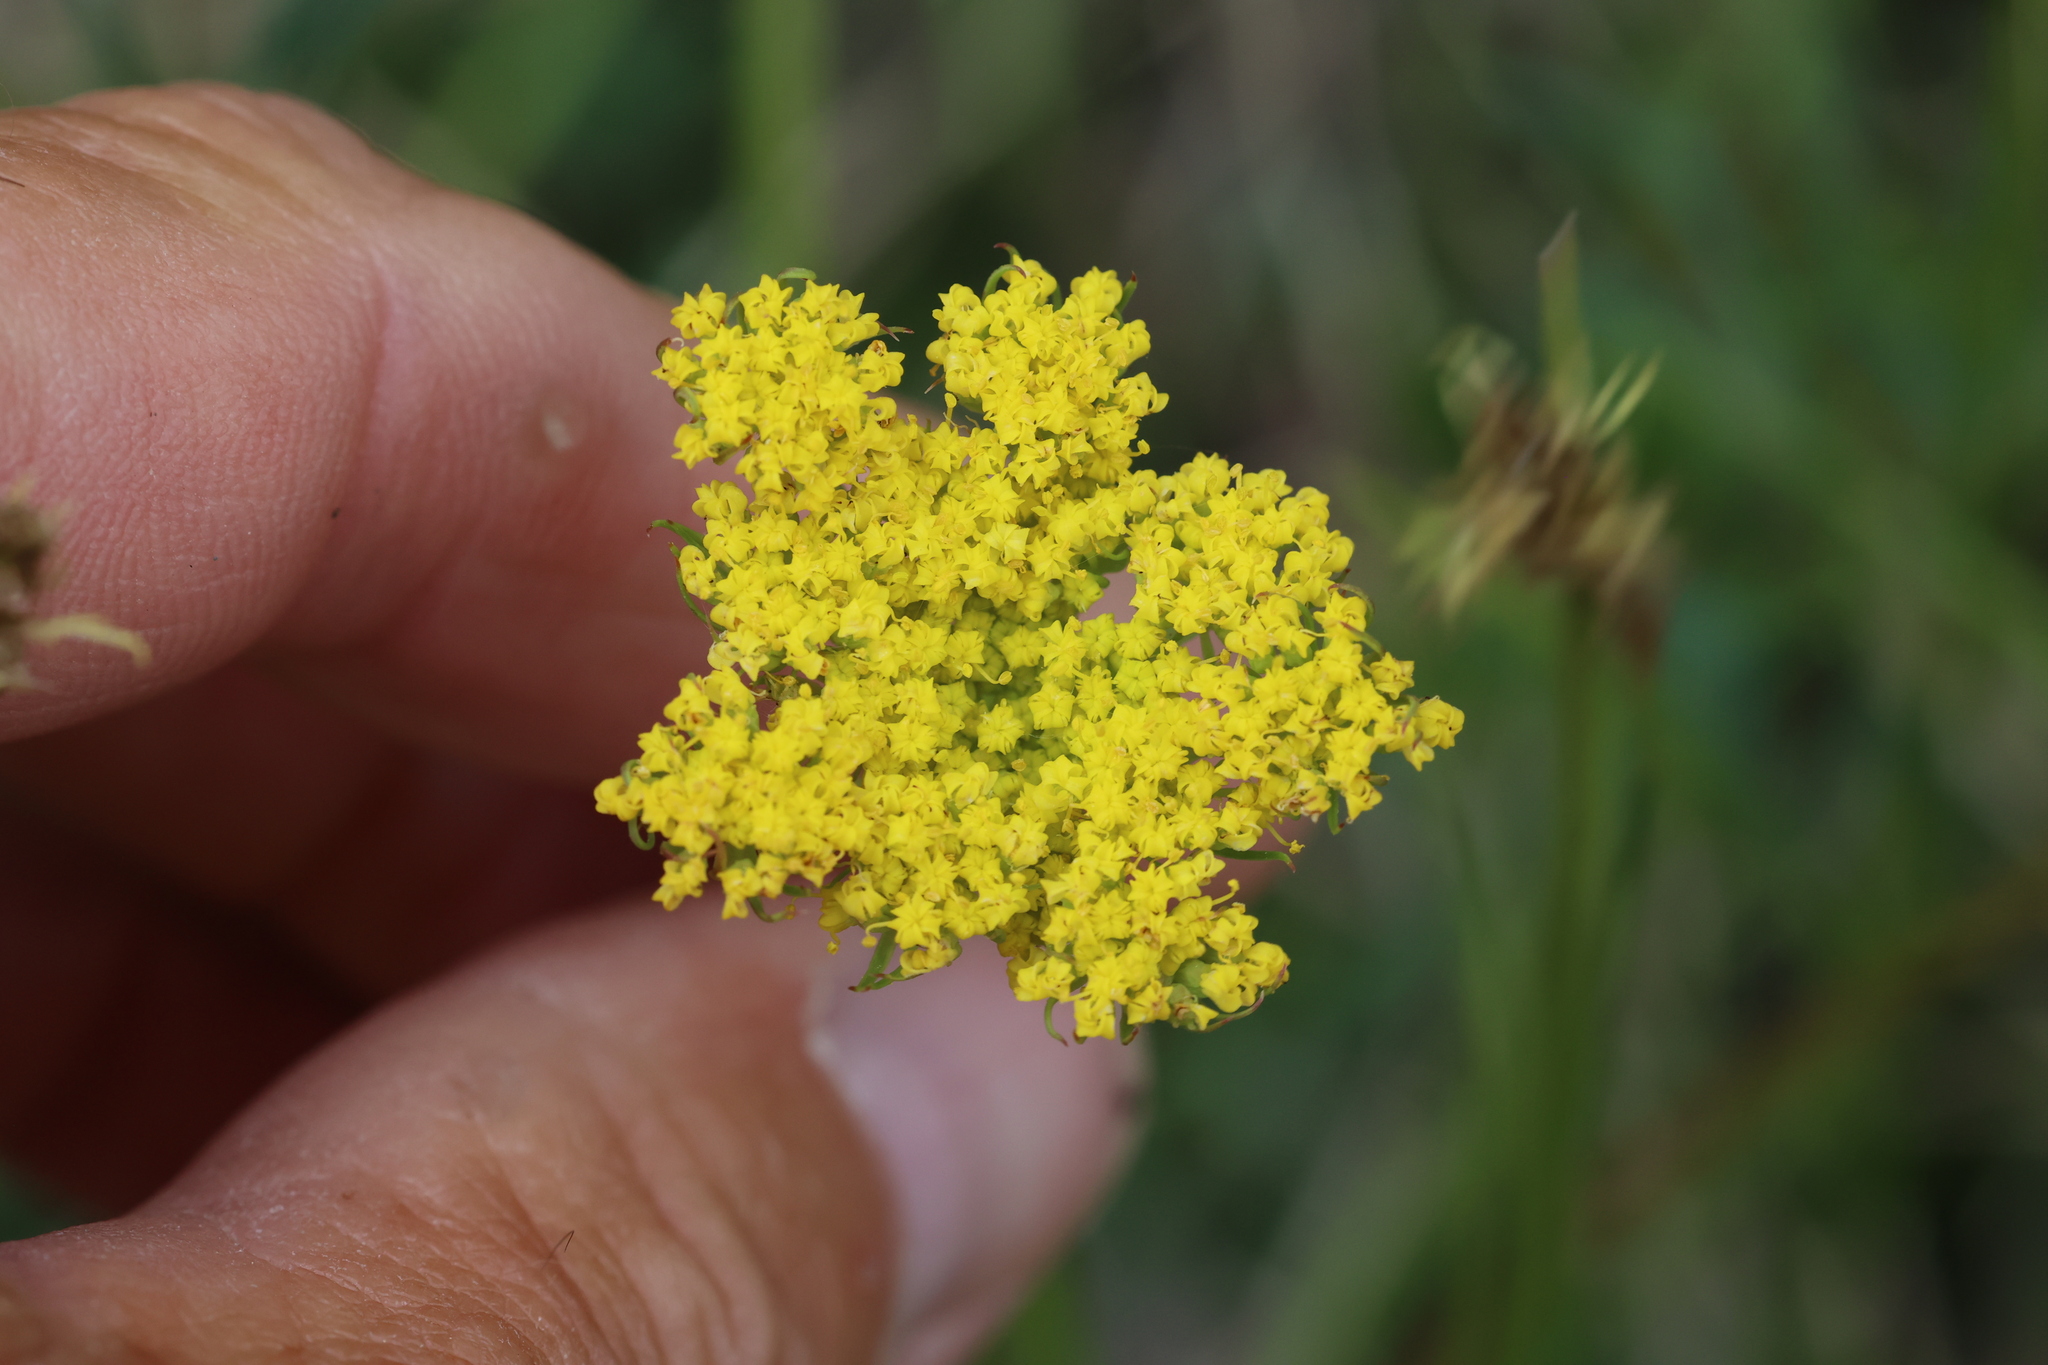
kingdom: Plantae
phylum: Tracheophyta
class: Magnoliopsida
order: Apiales
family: Apiaceae
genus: Cymopterus
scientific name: Cymopterus lemmonii
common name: Lemmon's spring-parsley
